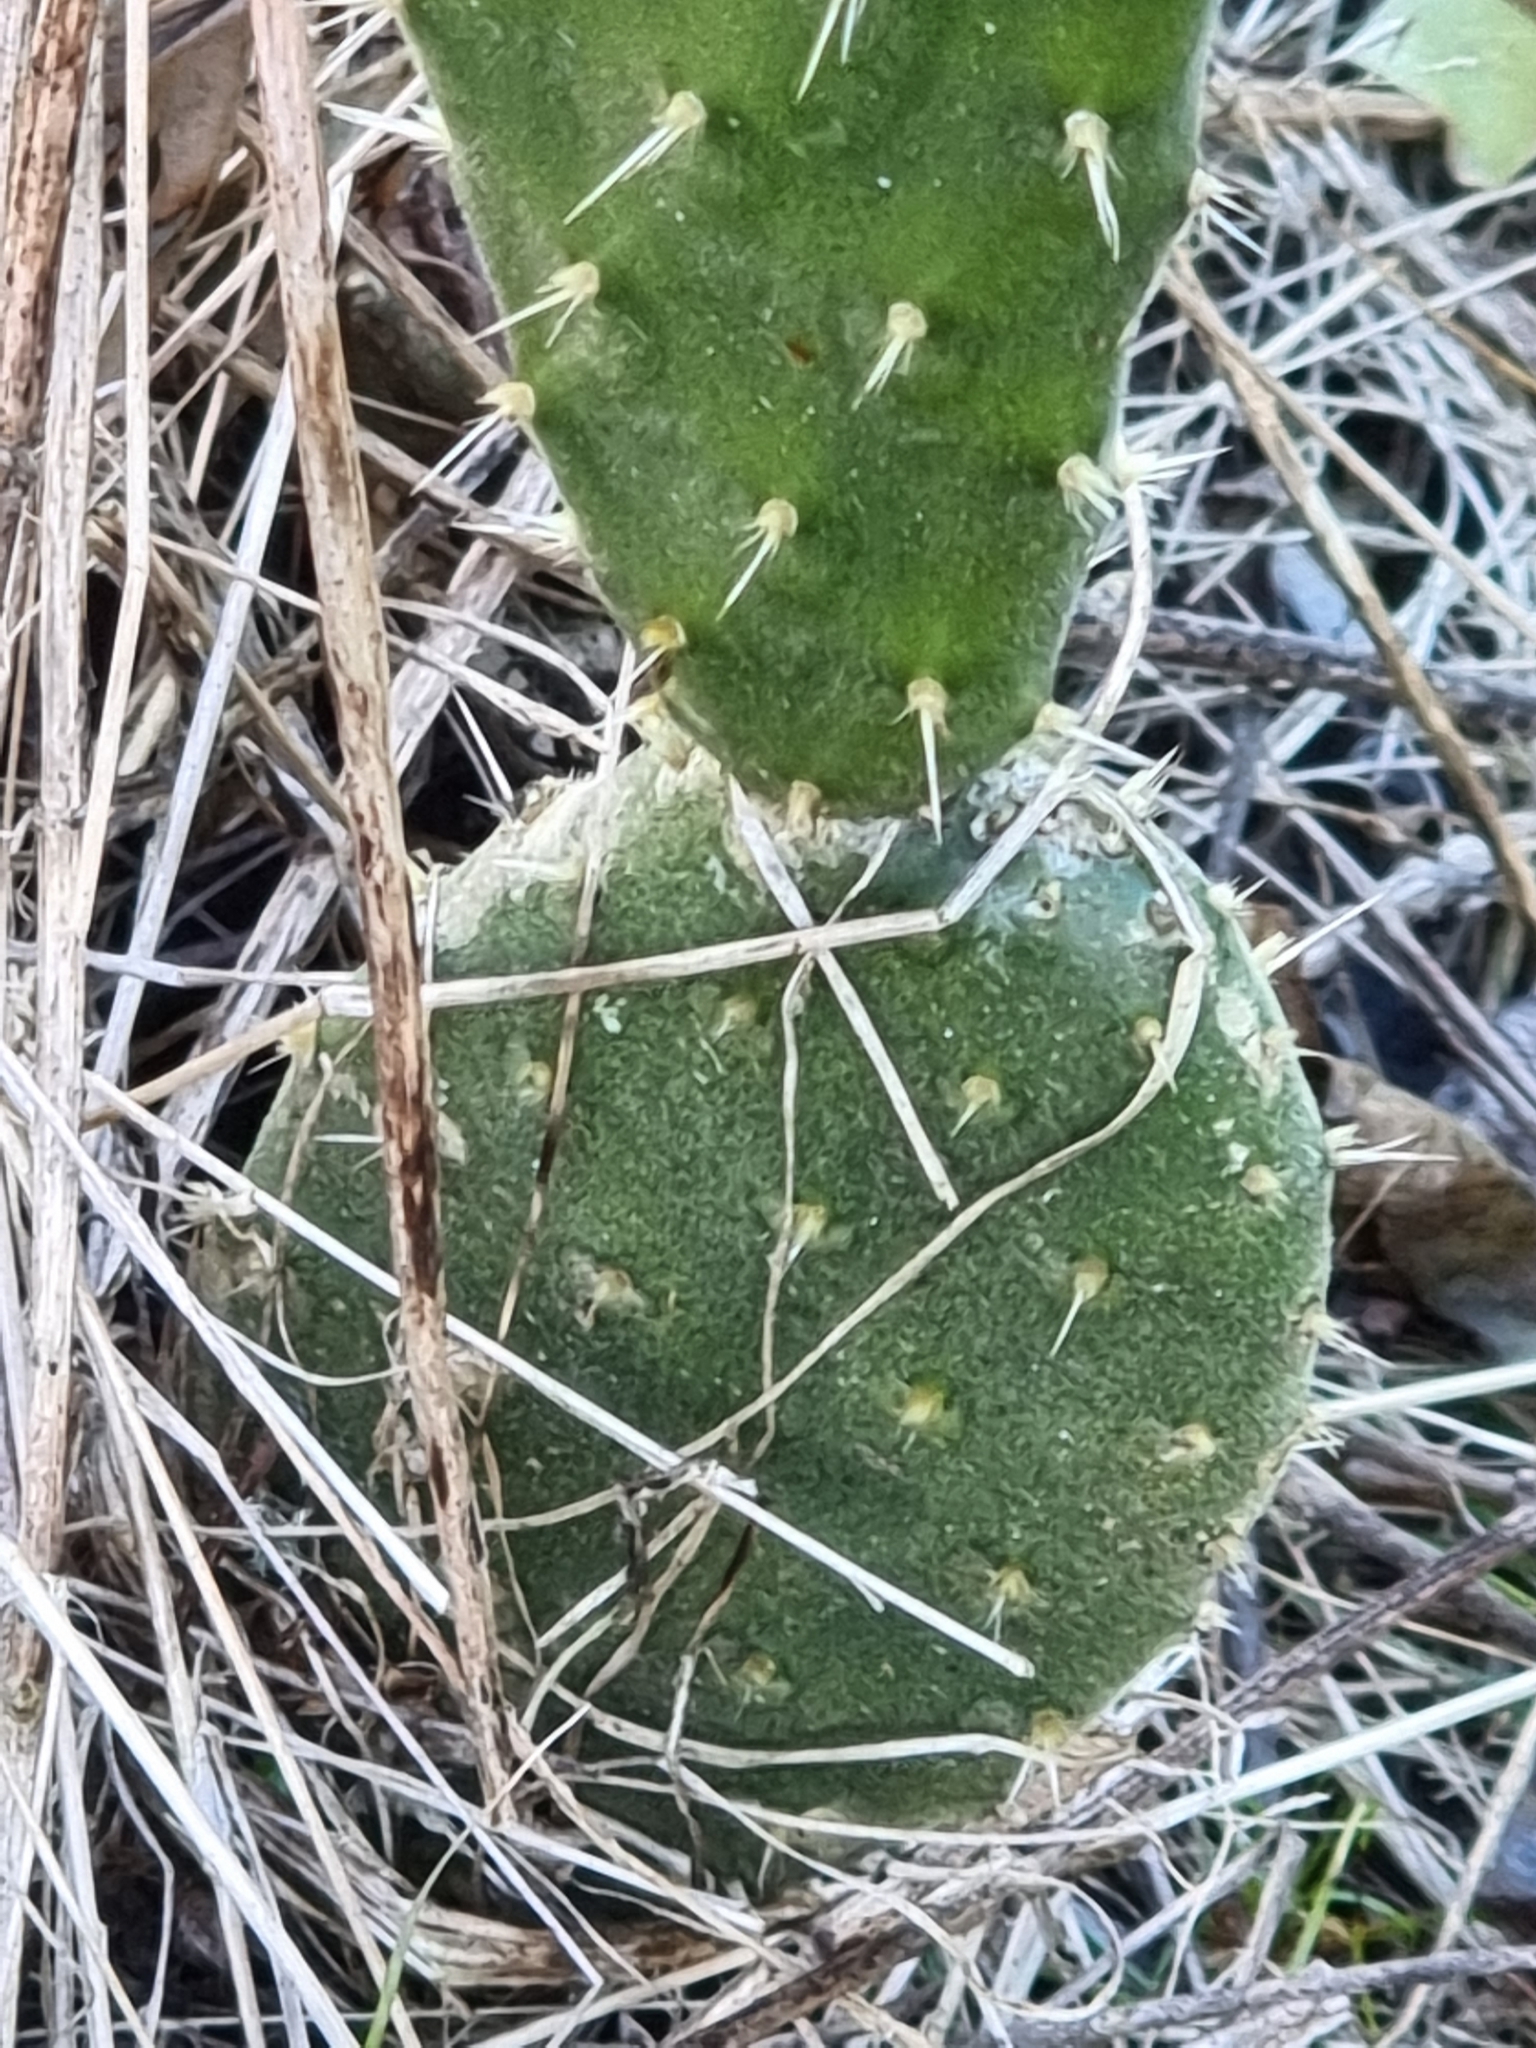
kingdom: Plantae
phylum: Tracheophyta
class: Magnoliopsida
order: Caryophyllales
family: Cactaceae
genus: Opuntia
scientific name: Opuntia tomentosa
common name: Woollyjoint pricklypear
